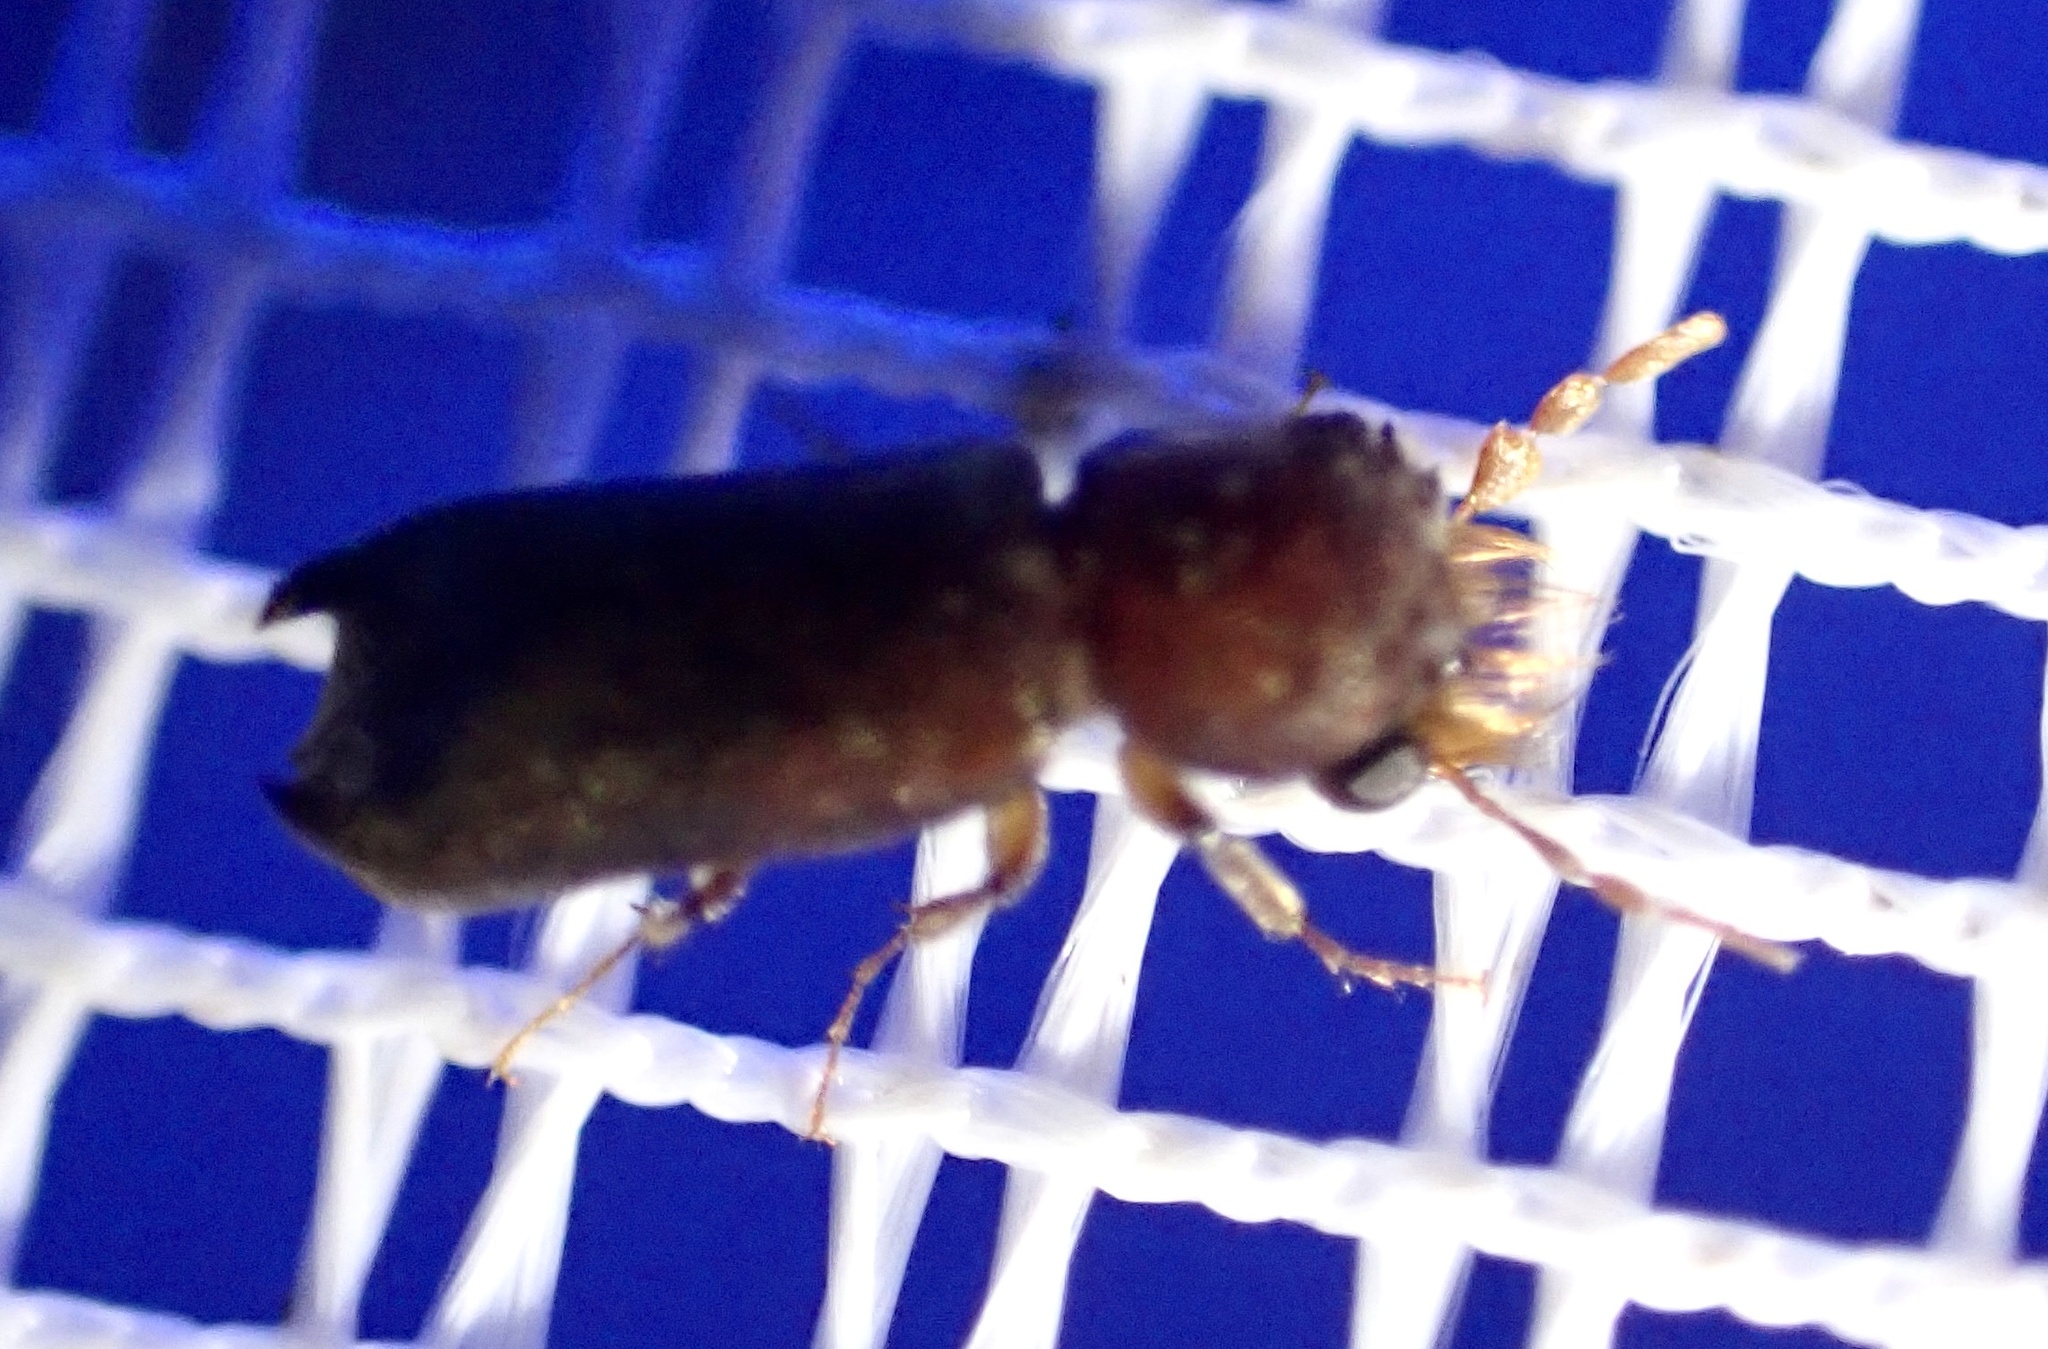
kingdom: Animalia
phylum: Arthropoda
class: Insecta
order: Coleoptera
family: Bostrichidae
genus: Enneadesmus
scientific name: Enneadesmus forficula
